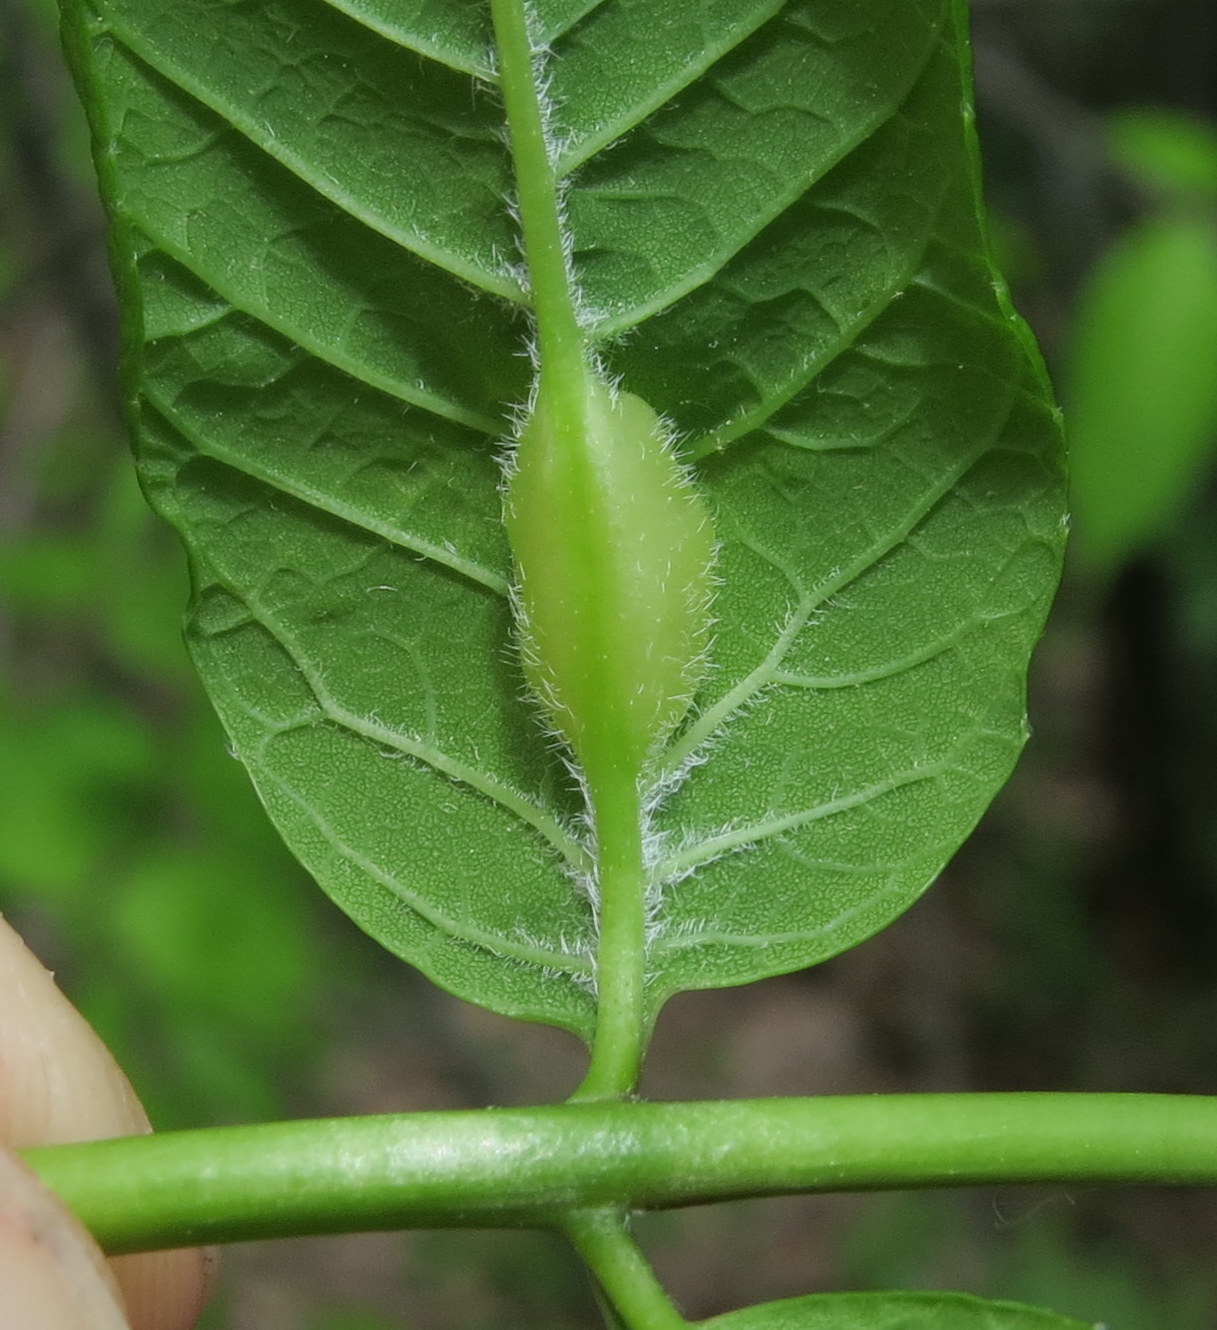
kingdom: Animalia
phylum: Arthropoda
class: Insecta
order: Diptera
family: Cecidomyiidae
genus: Dasineura
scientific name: Dasineura tumidosae
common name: Ash petiole gall midge
